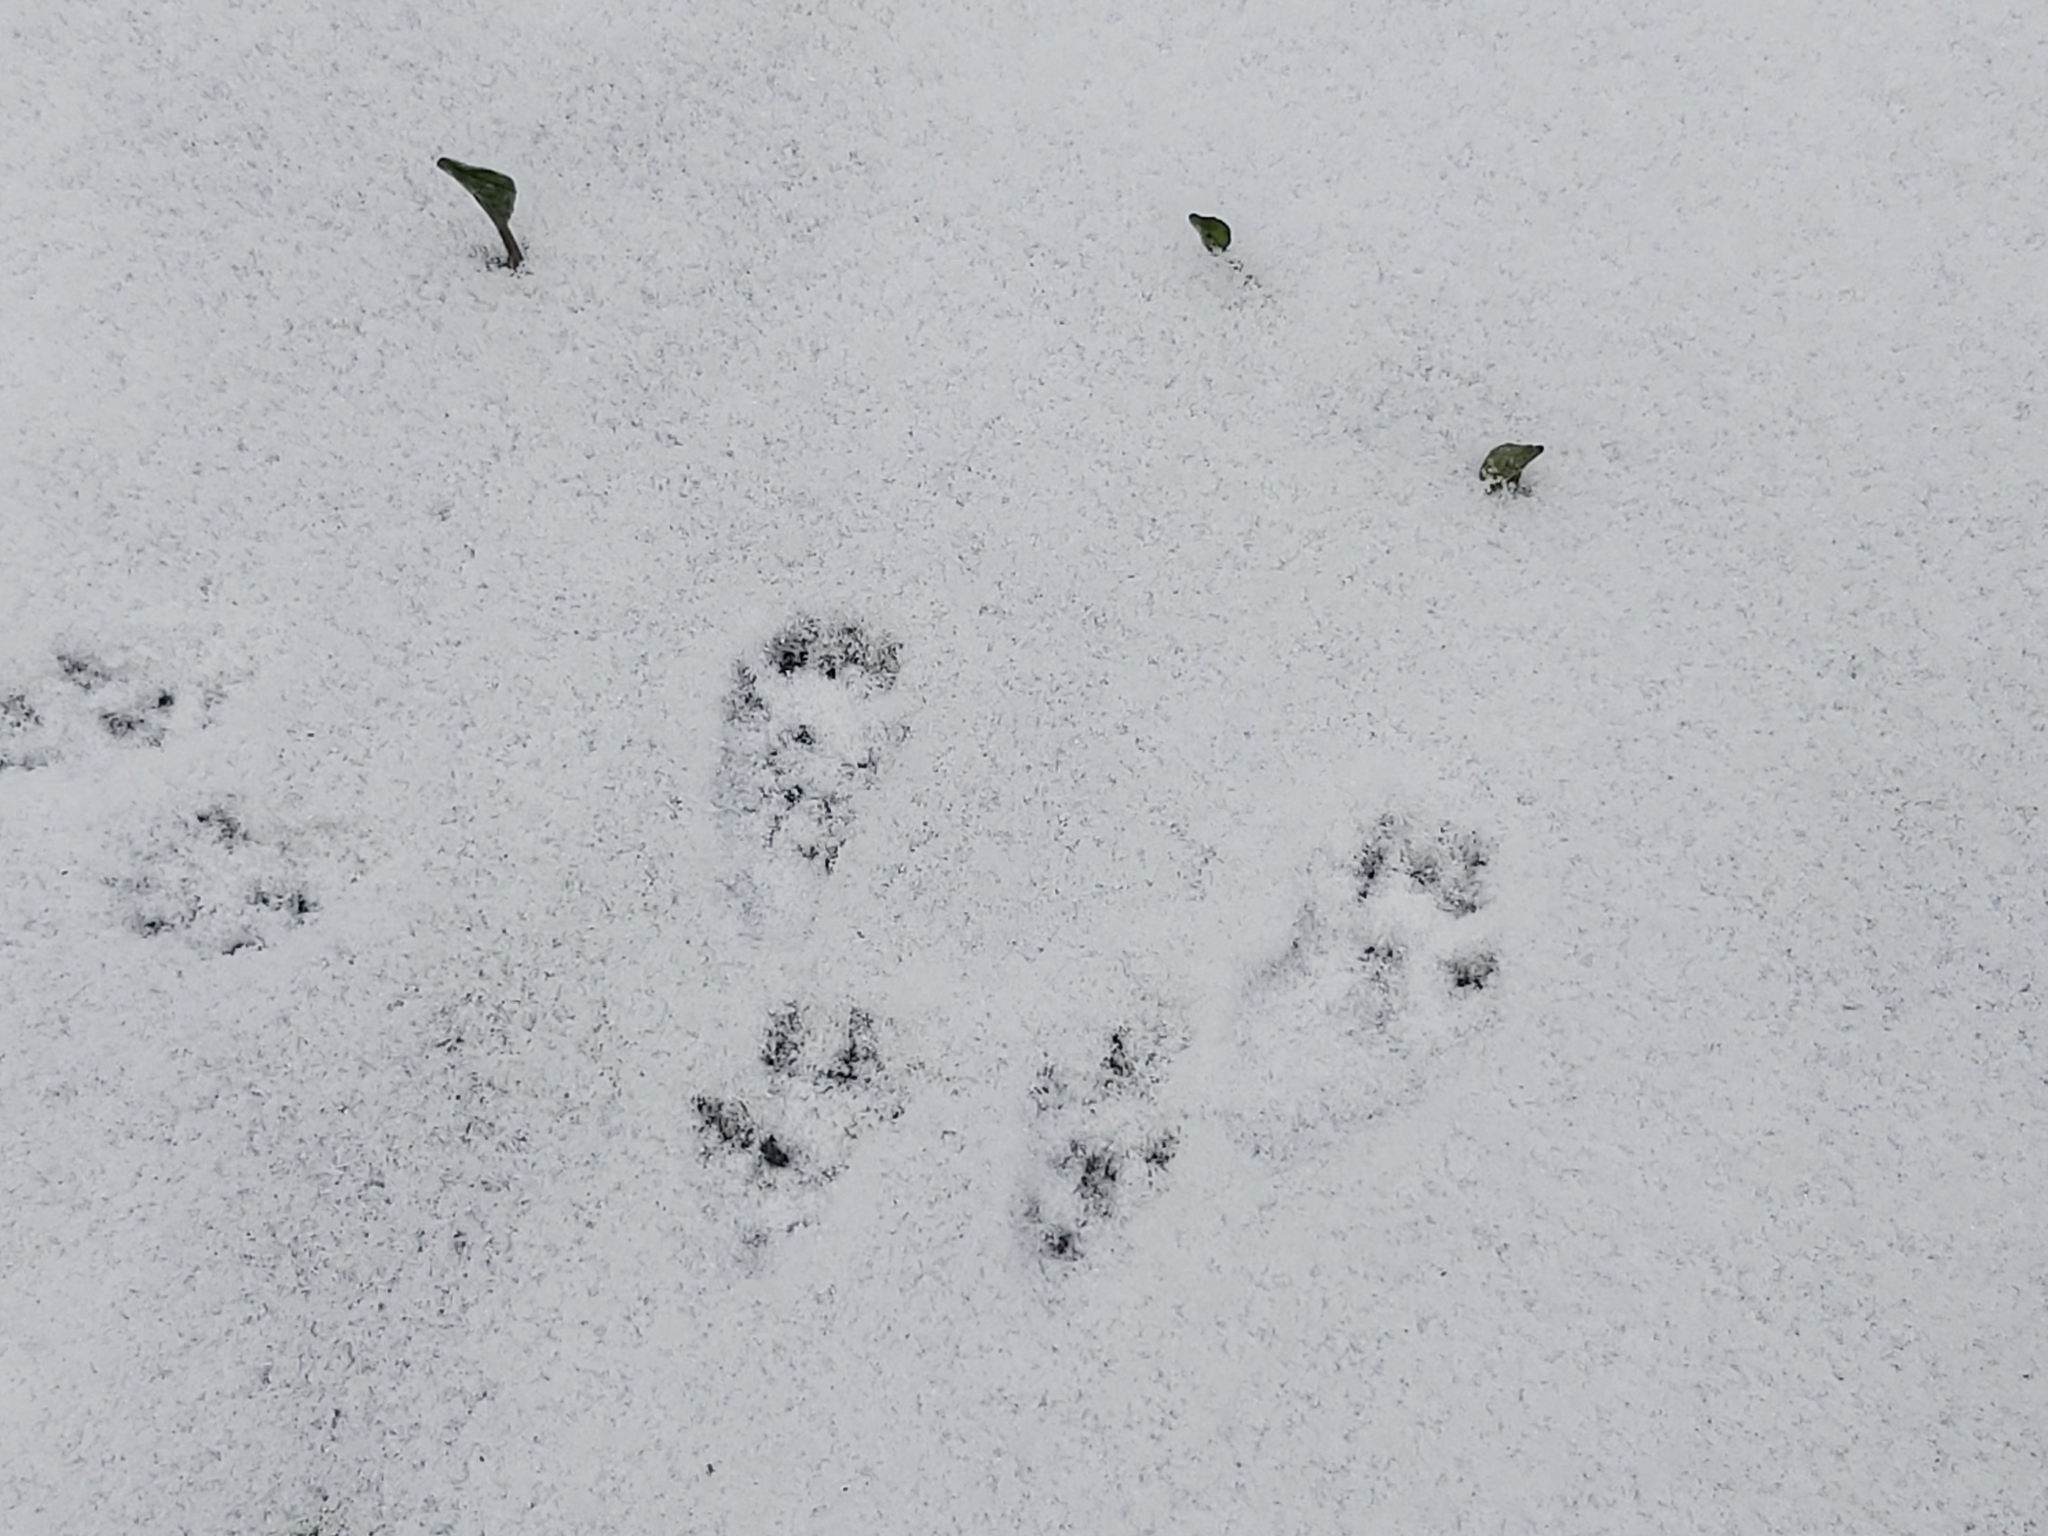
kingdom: Animalia
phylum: Chordata
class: Mammalia
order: Rodentia
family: Sciuridae
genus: Sciurus
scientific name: Sciurus vulgaris
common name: Eurasian red squirrel
